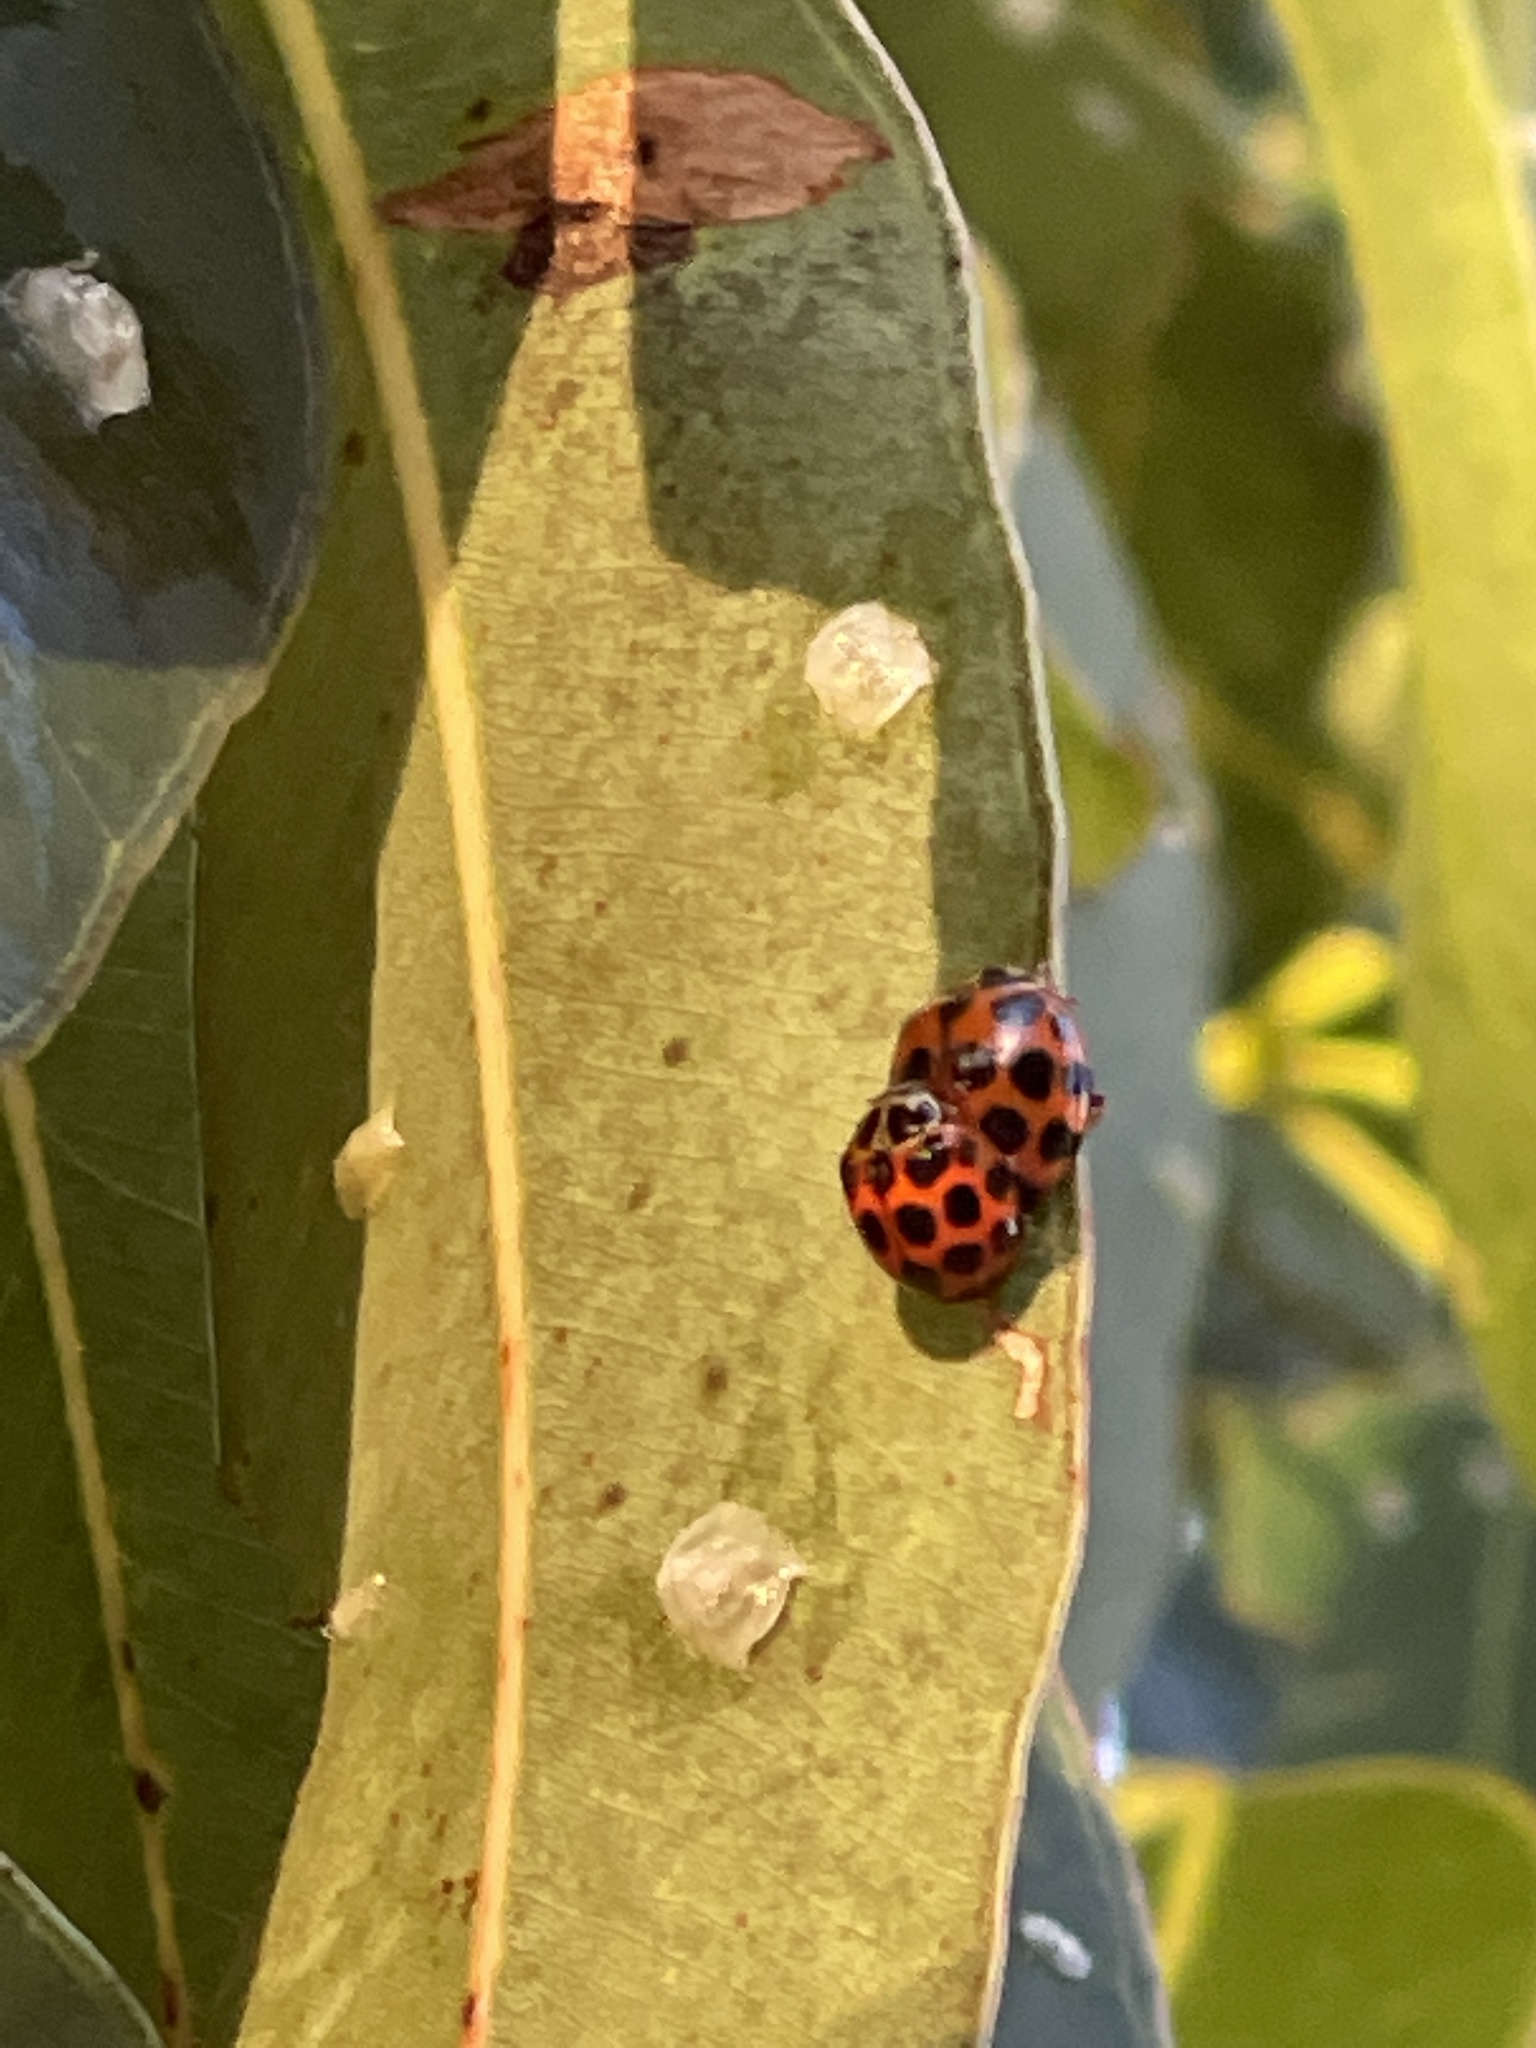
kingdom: Animalia
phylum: Arthropoda
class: Insecta
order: Coleoptera
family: Coccinellidae
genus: Harmonia
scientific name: Harmonia conformis
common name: Common spotted ladybird beetle
